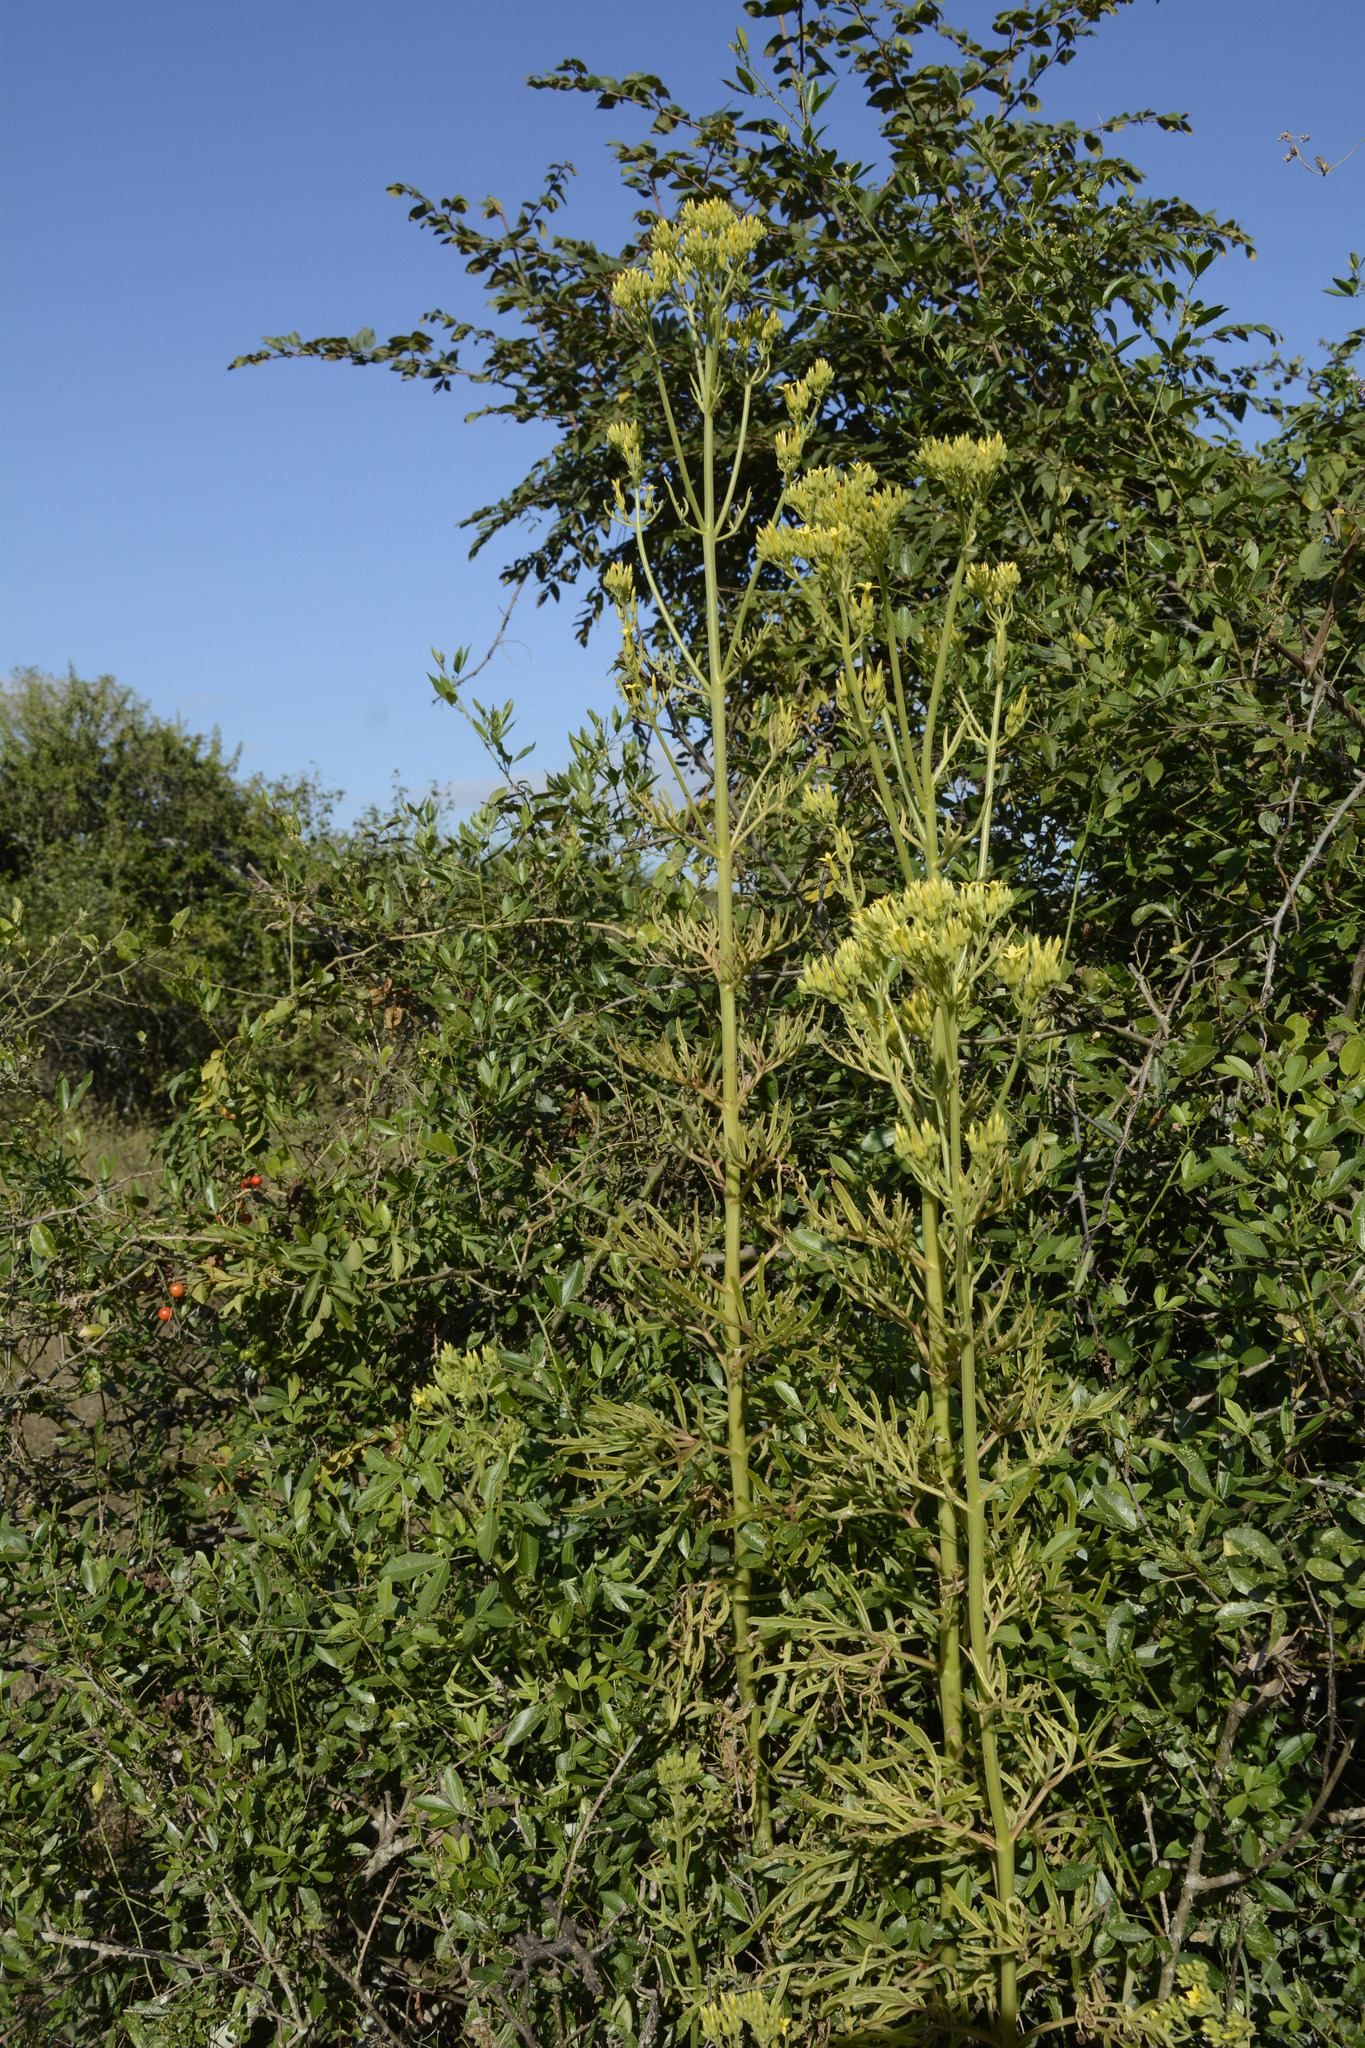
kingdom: Plantae
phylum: Tracheophyta
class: Magnoliopsida
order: Saxifragales
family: Crassulaceae
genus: Kalanchoe
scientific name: Kalanchoe laciniata
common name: Christmastree plant
